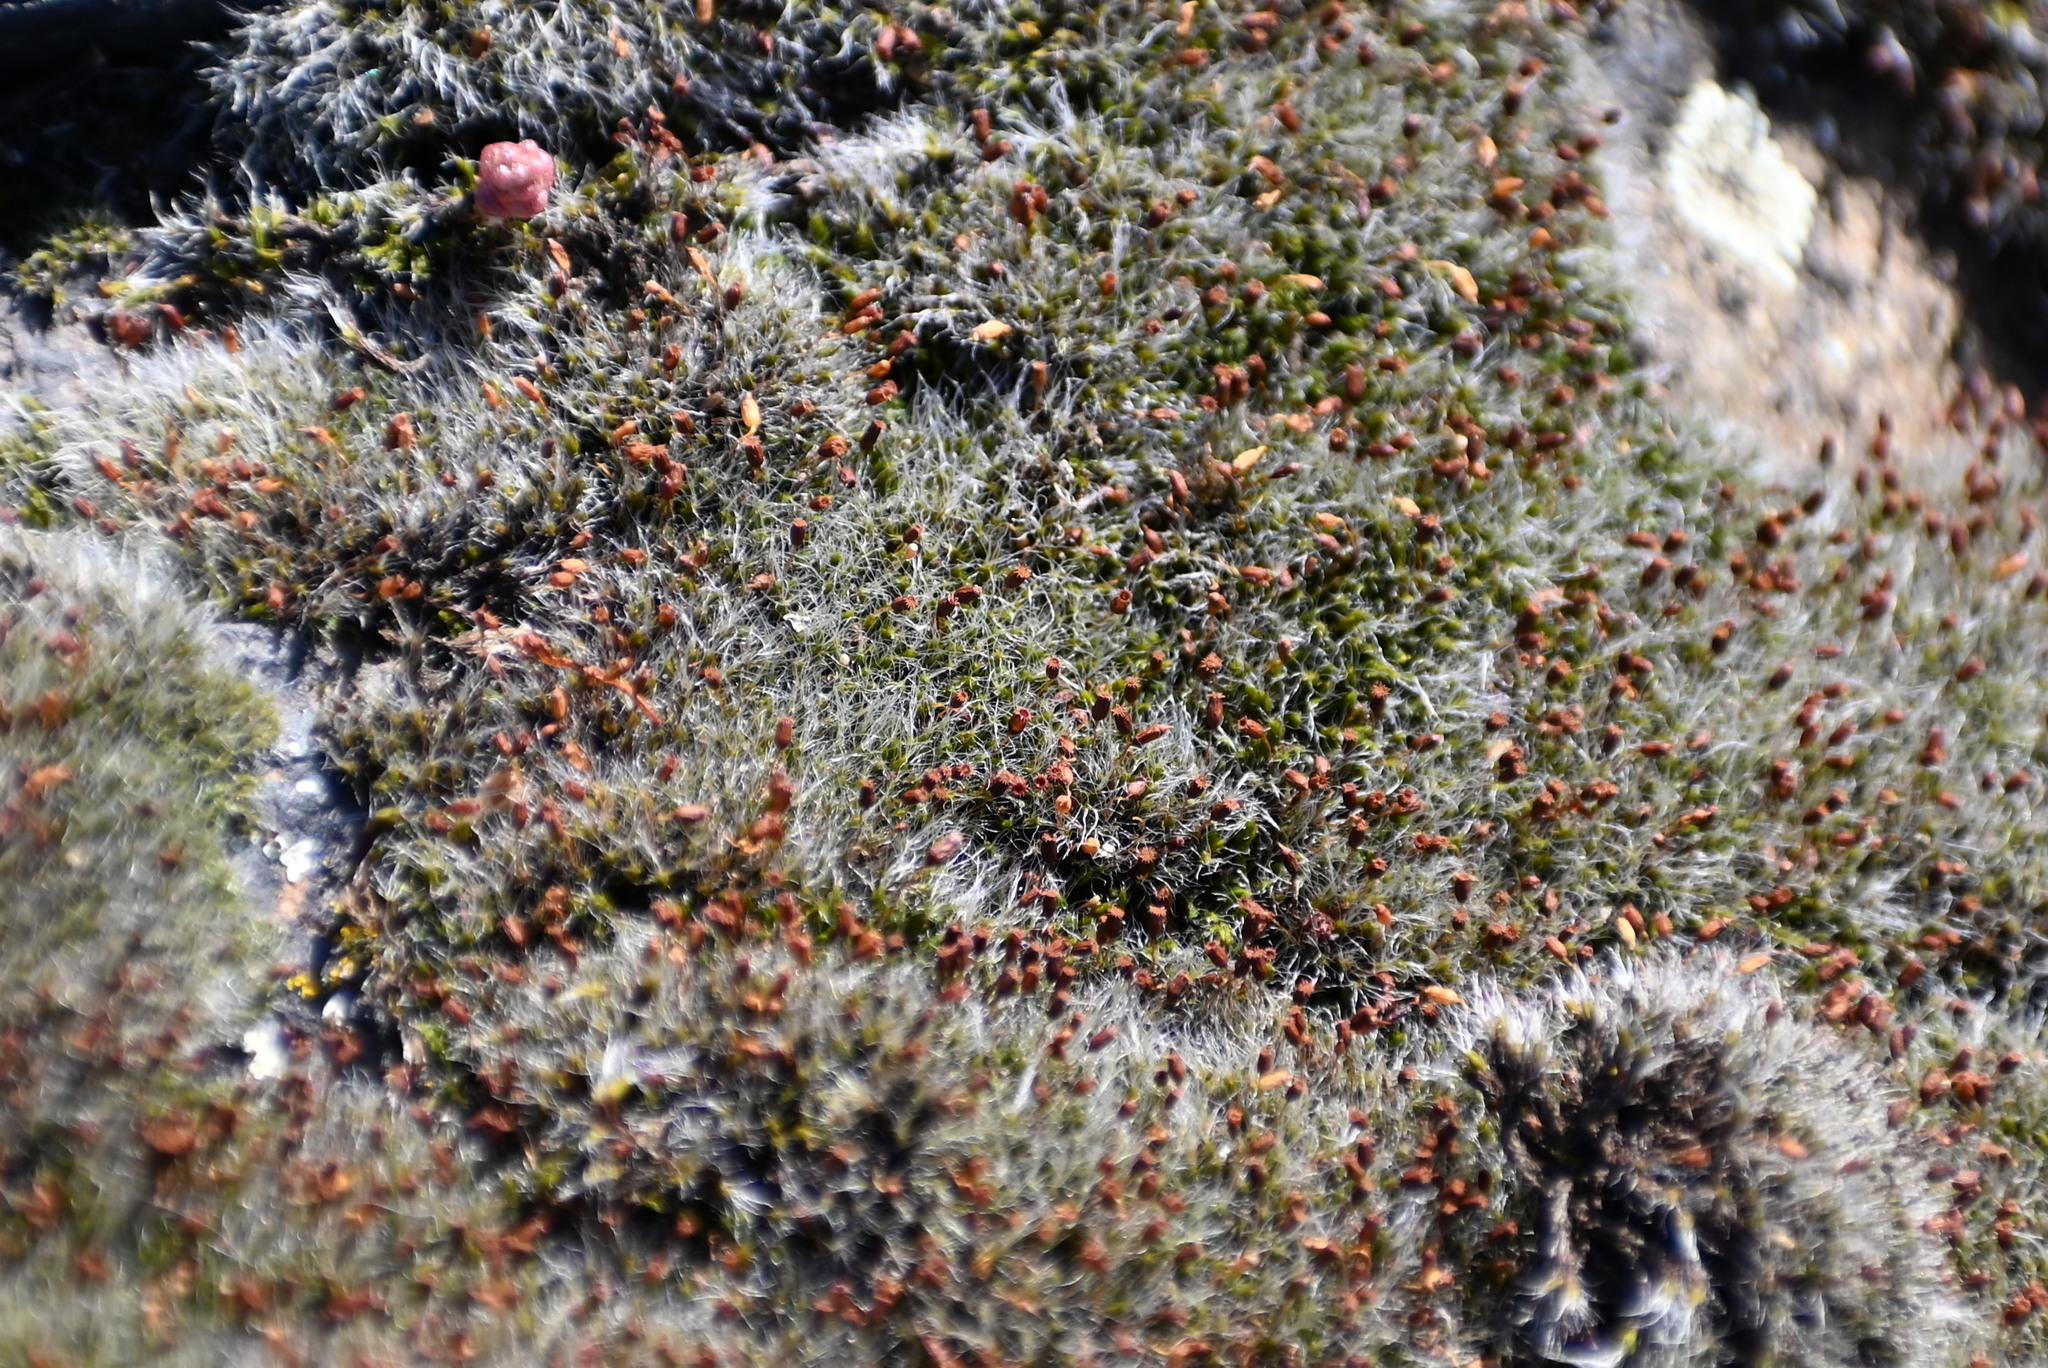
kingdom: Plantae
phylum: Bryophyta
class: Bryopsida
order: Grimmiales
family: Grimmiaceae
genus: Grimmia
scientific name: Grimmia pulvinata
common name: Grey-cushioned grimmia
